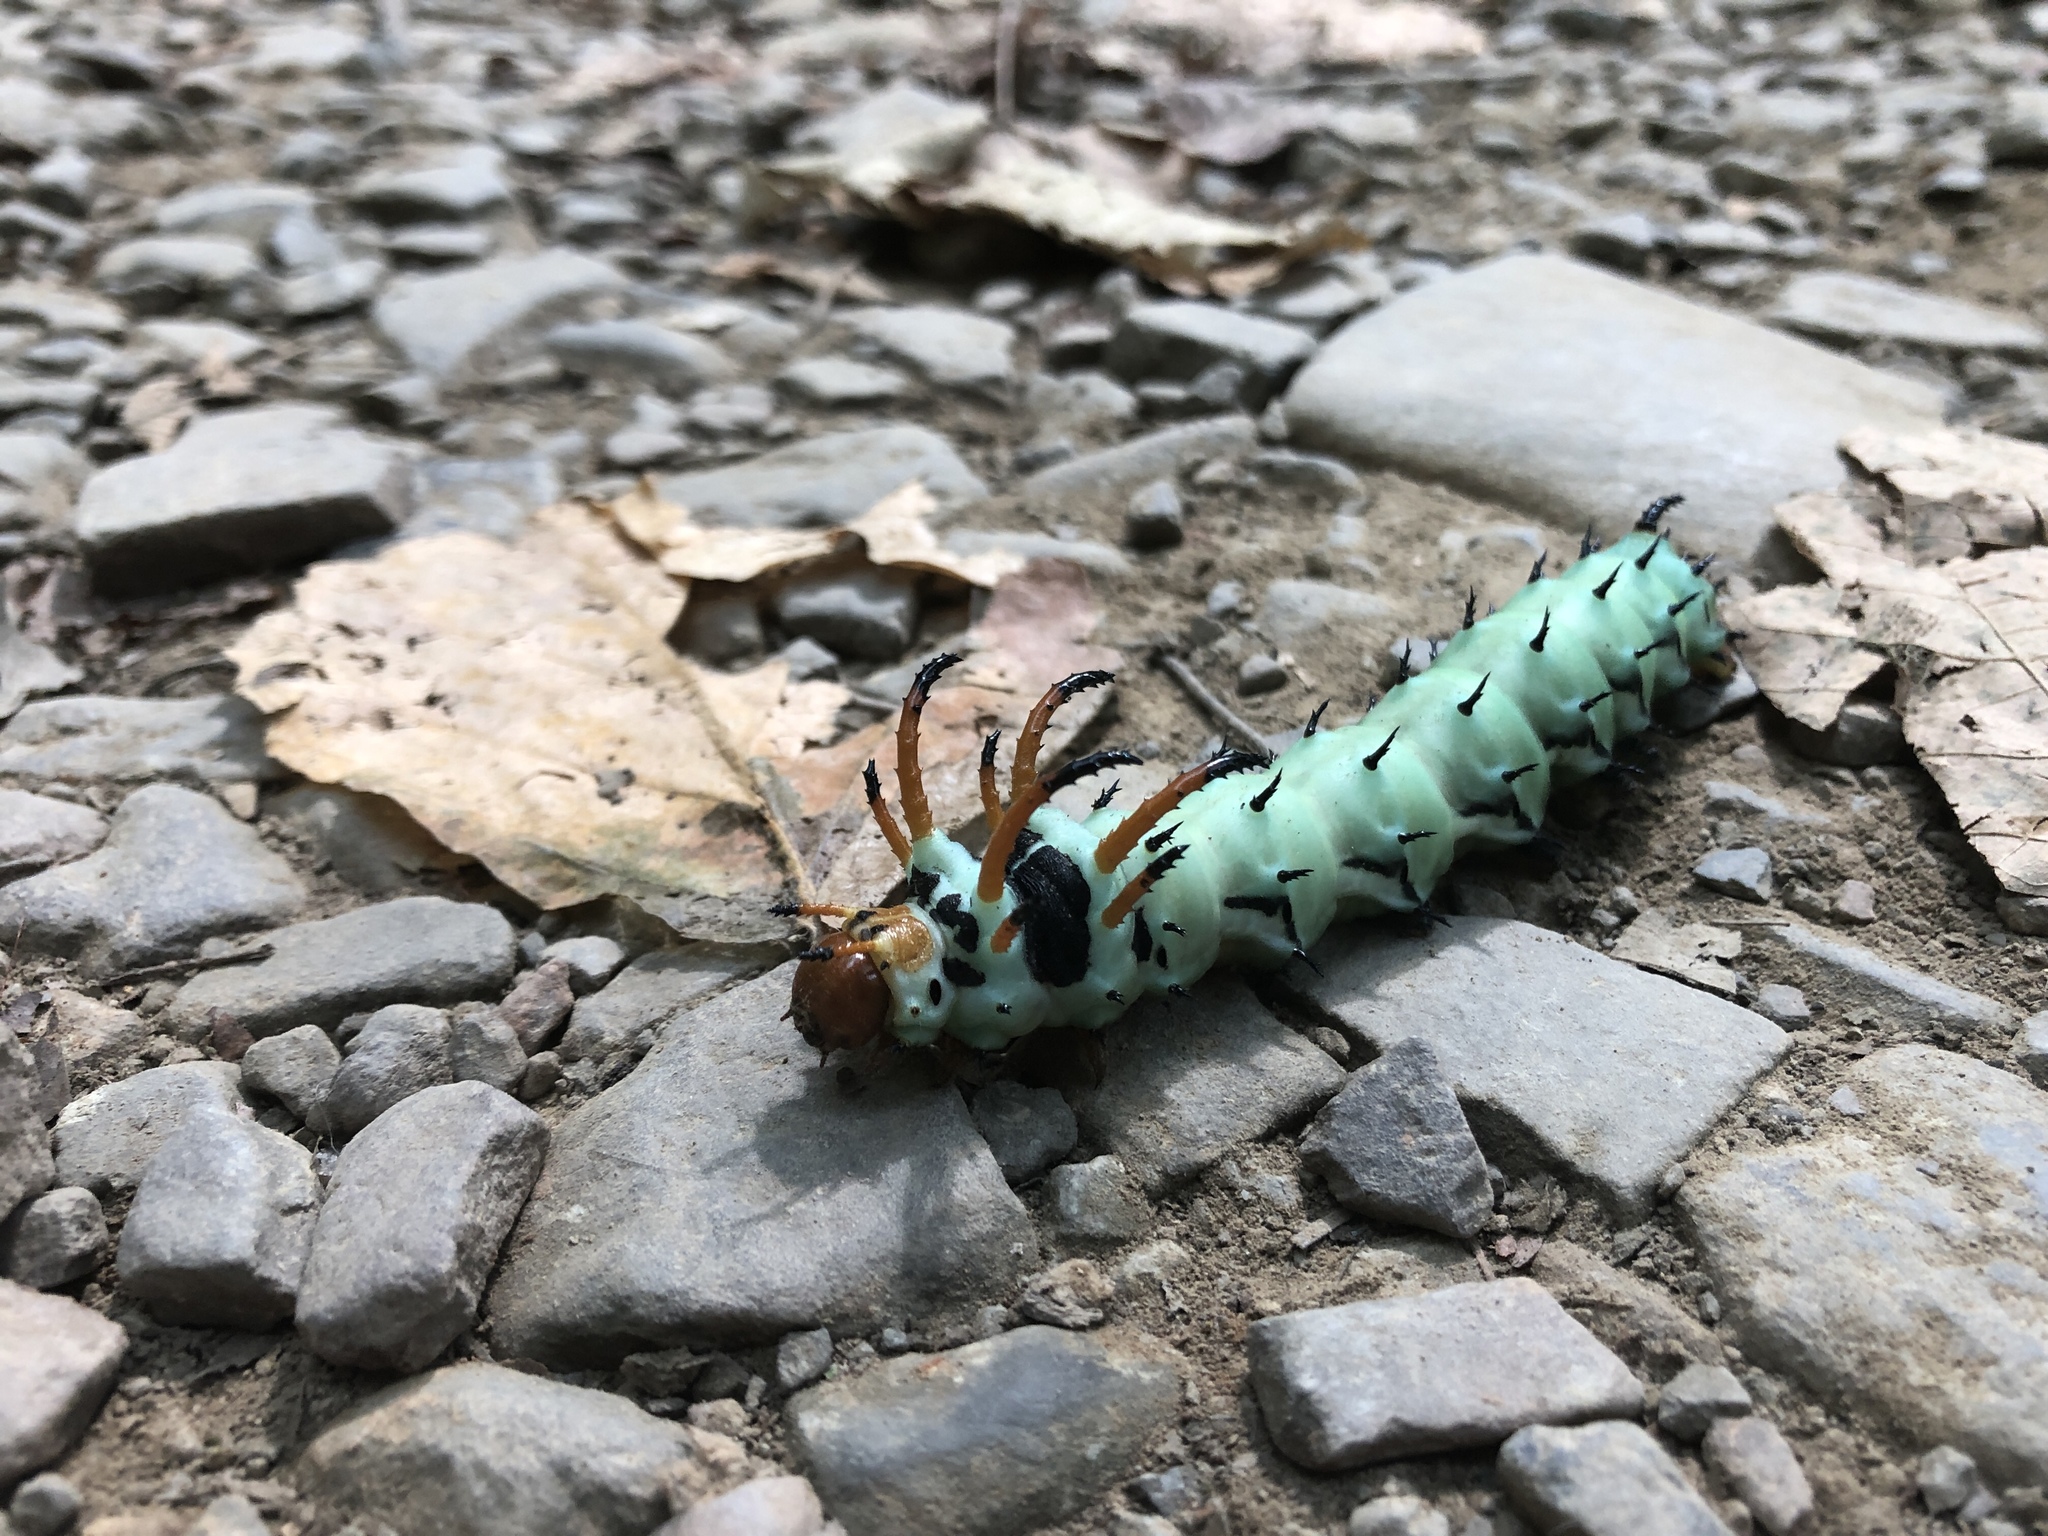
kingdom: Animalia
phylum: Arthropoda
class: Insecta
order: Lepidoptera
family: Saturniidae
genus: Citheronia
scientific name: Citheronia regalis
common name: Hickory horned devil
